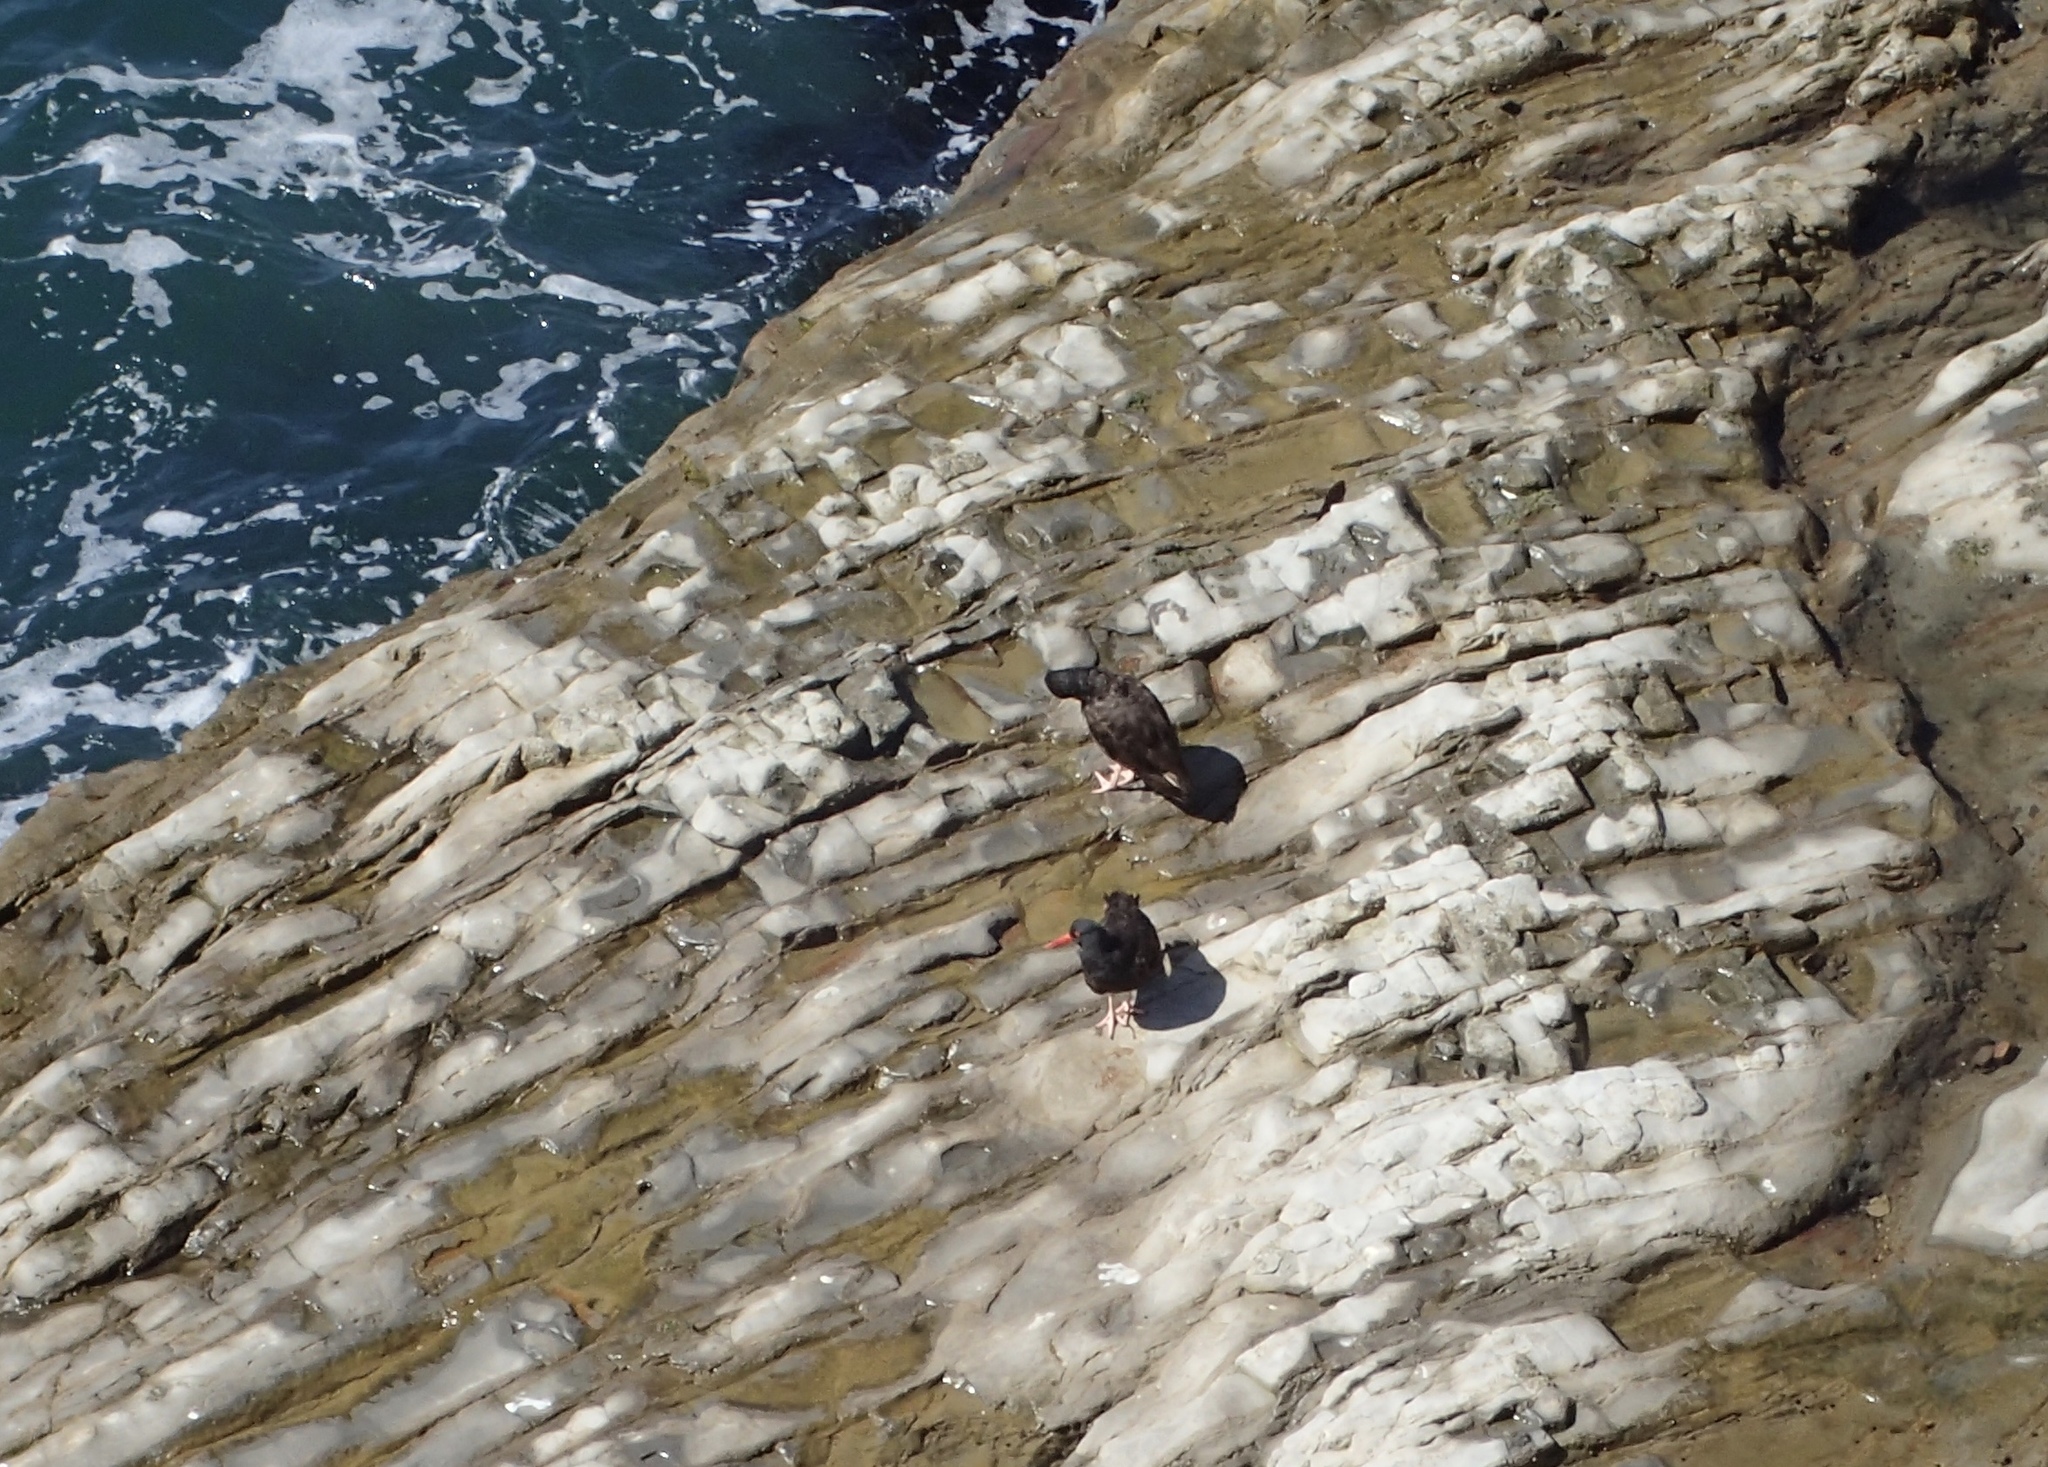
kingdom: Animalia
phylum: Chordata
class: Aves
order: Charadriiformes
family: Haematopodidae
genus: Haematopus
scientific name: Haematopus bachmani
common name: Black oystercatcher
